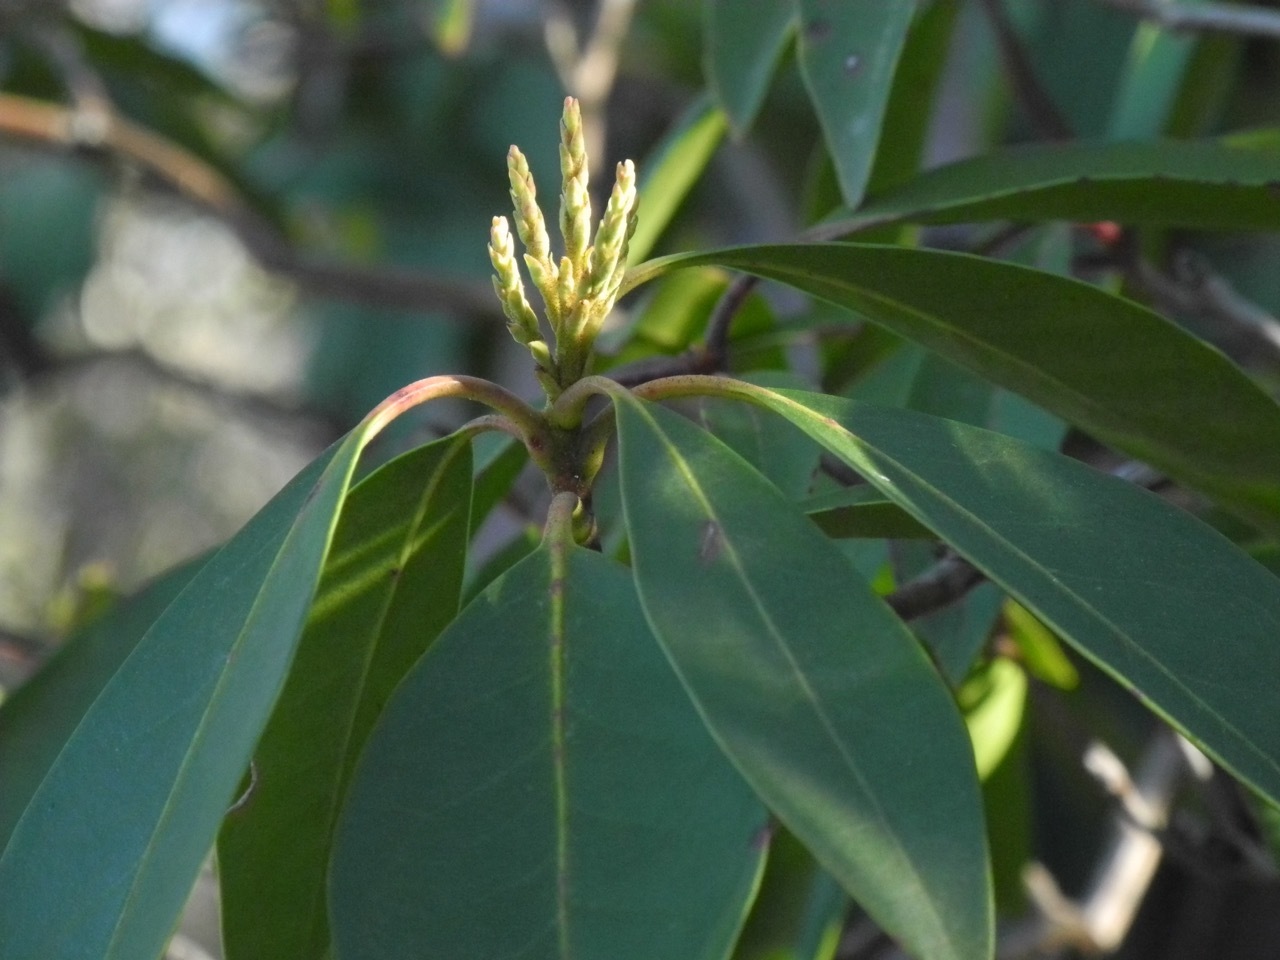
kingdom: Plantae
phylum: Tracheophyta
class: Magnoliopsida
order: Ericales
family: Ericaceae
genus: Kalmia
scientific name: Kalmia latifolia
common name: Mountain-laurel
